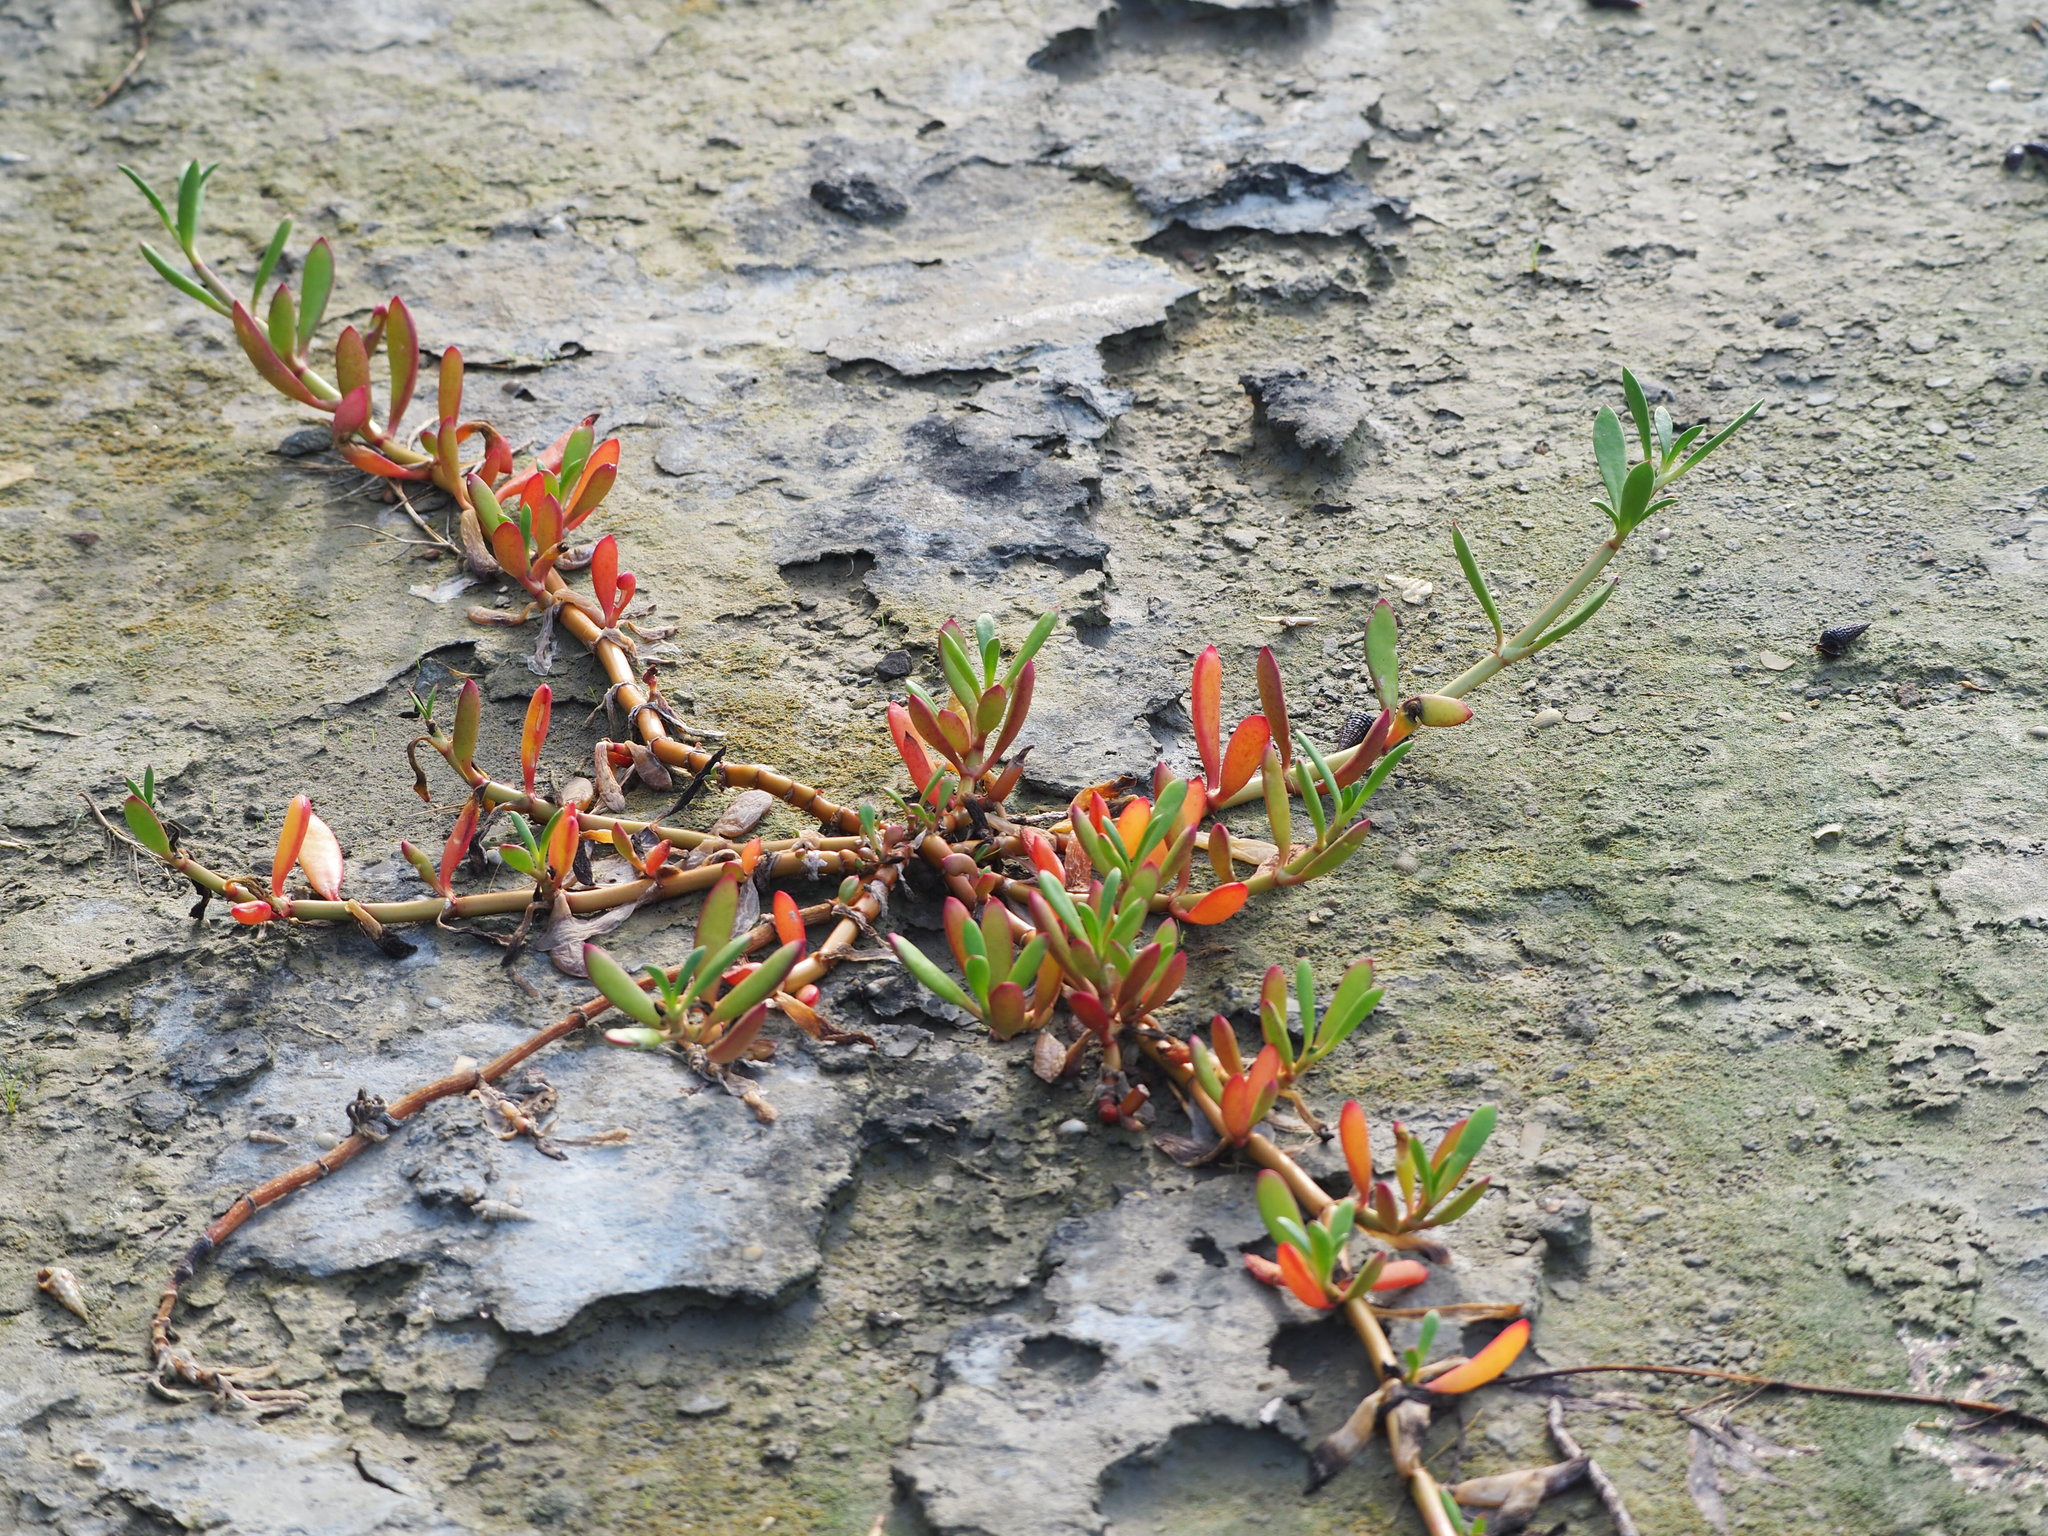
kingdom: Plantae
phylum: Tracheophyta
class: Magnoliopsida
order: Caryophyllales
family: Aizoaceae
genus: Sesuvium
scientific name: Sesuvium portulacastrum
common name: Sea-purslane
